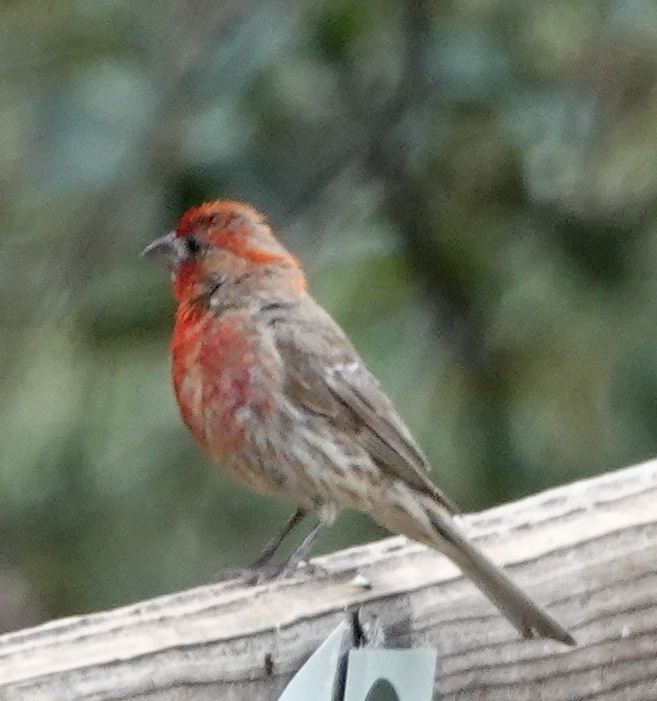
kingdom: Animalia
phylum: Chordata
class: Aves
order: Passeriformes
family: Fringillidae
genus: Haemorhous
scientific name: Haemorhous mexicanus
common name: House finch
